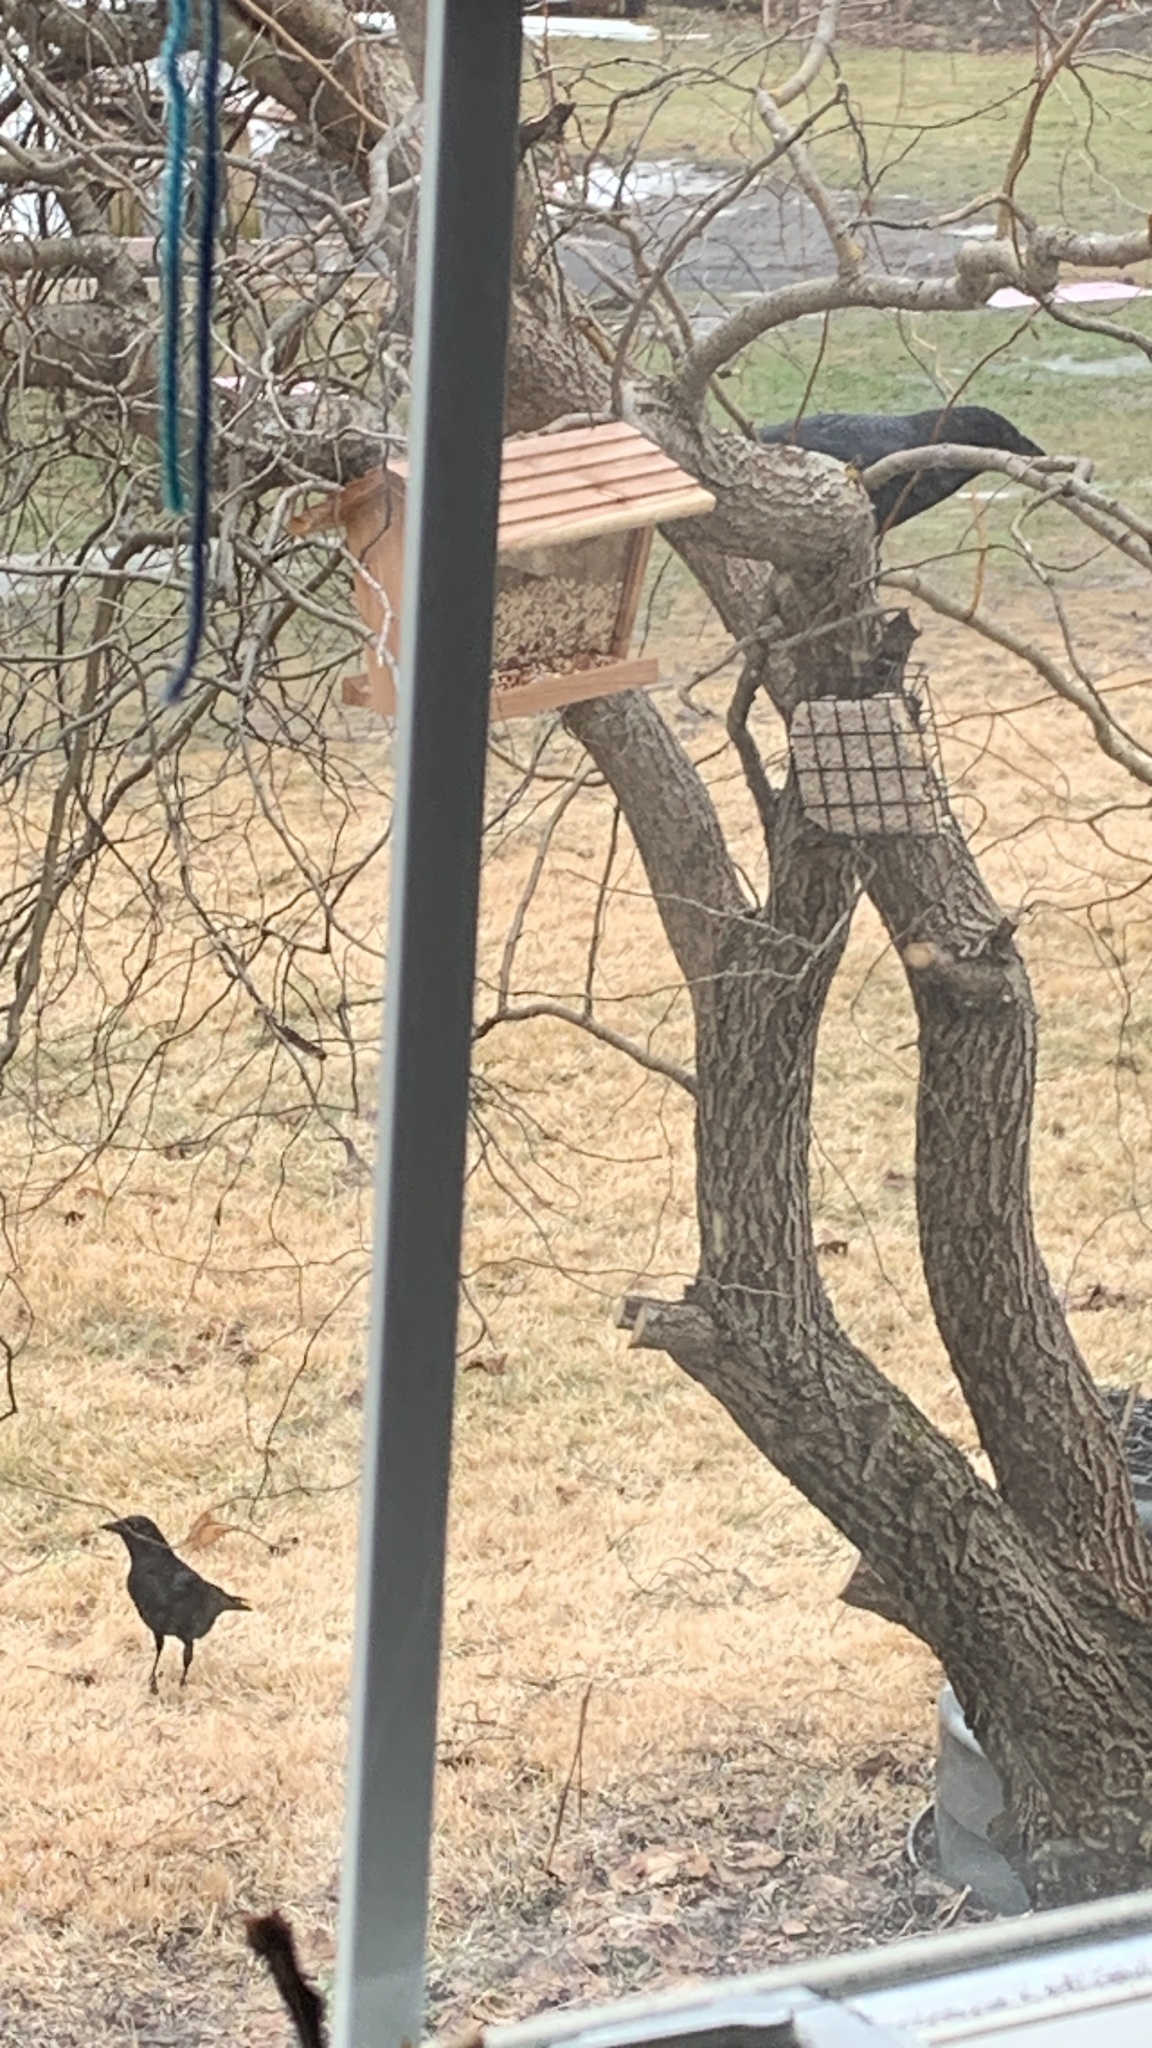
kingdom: Animalia
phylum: Chordata
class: Aves
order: Passeriformes
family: Corvidae
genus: Corvus
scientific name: Corvus brachyrhynchos
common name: American crow
